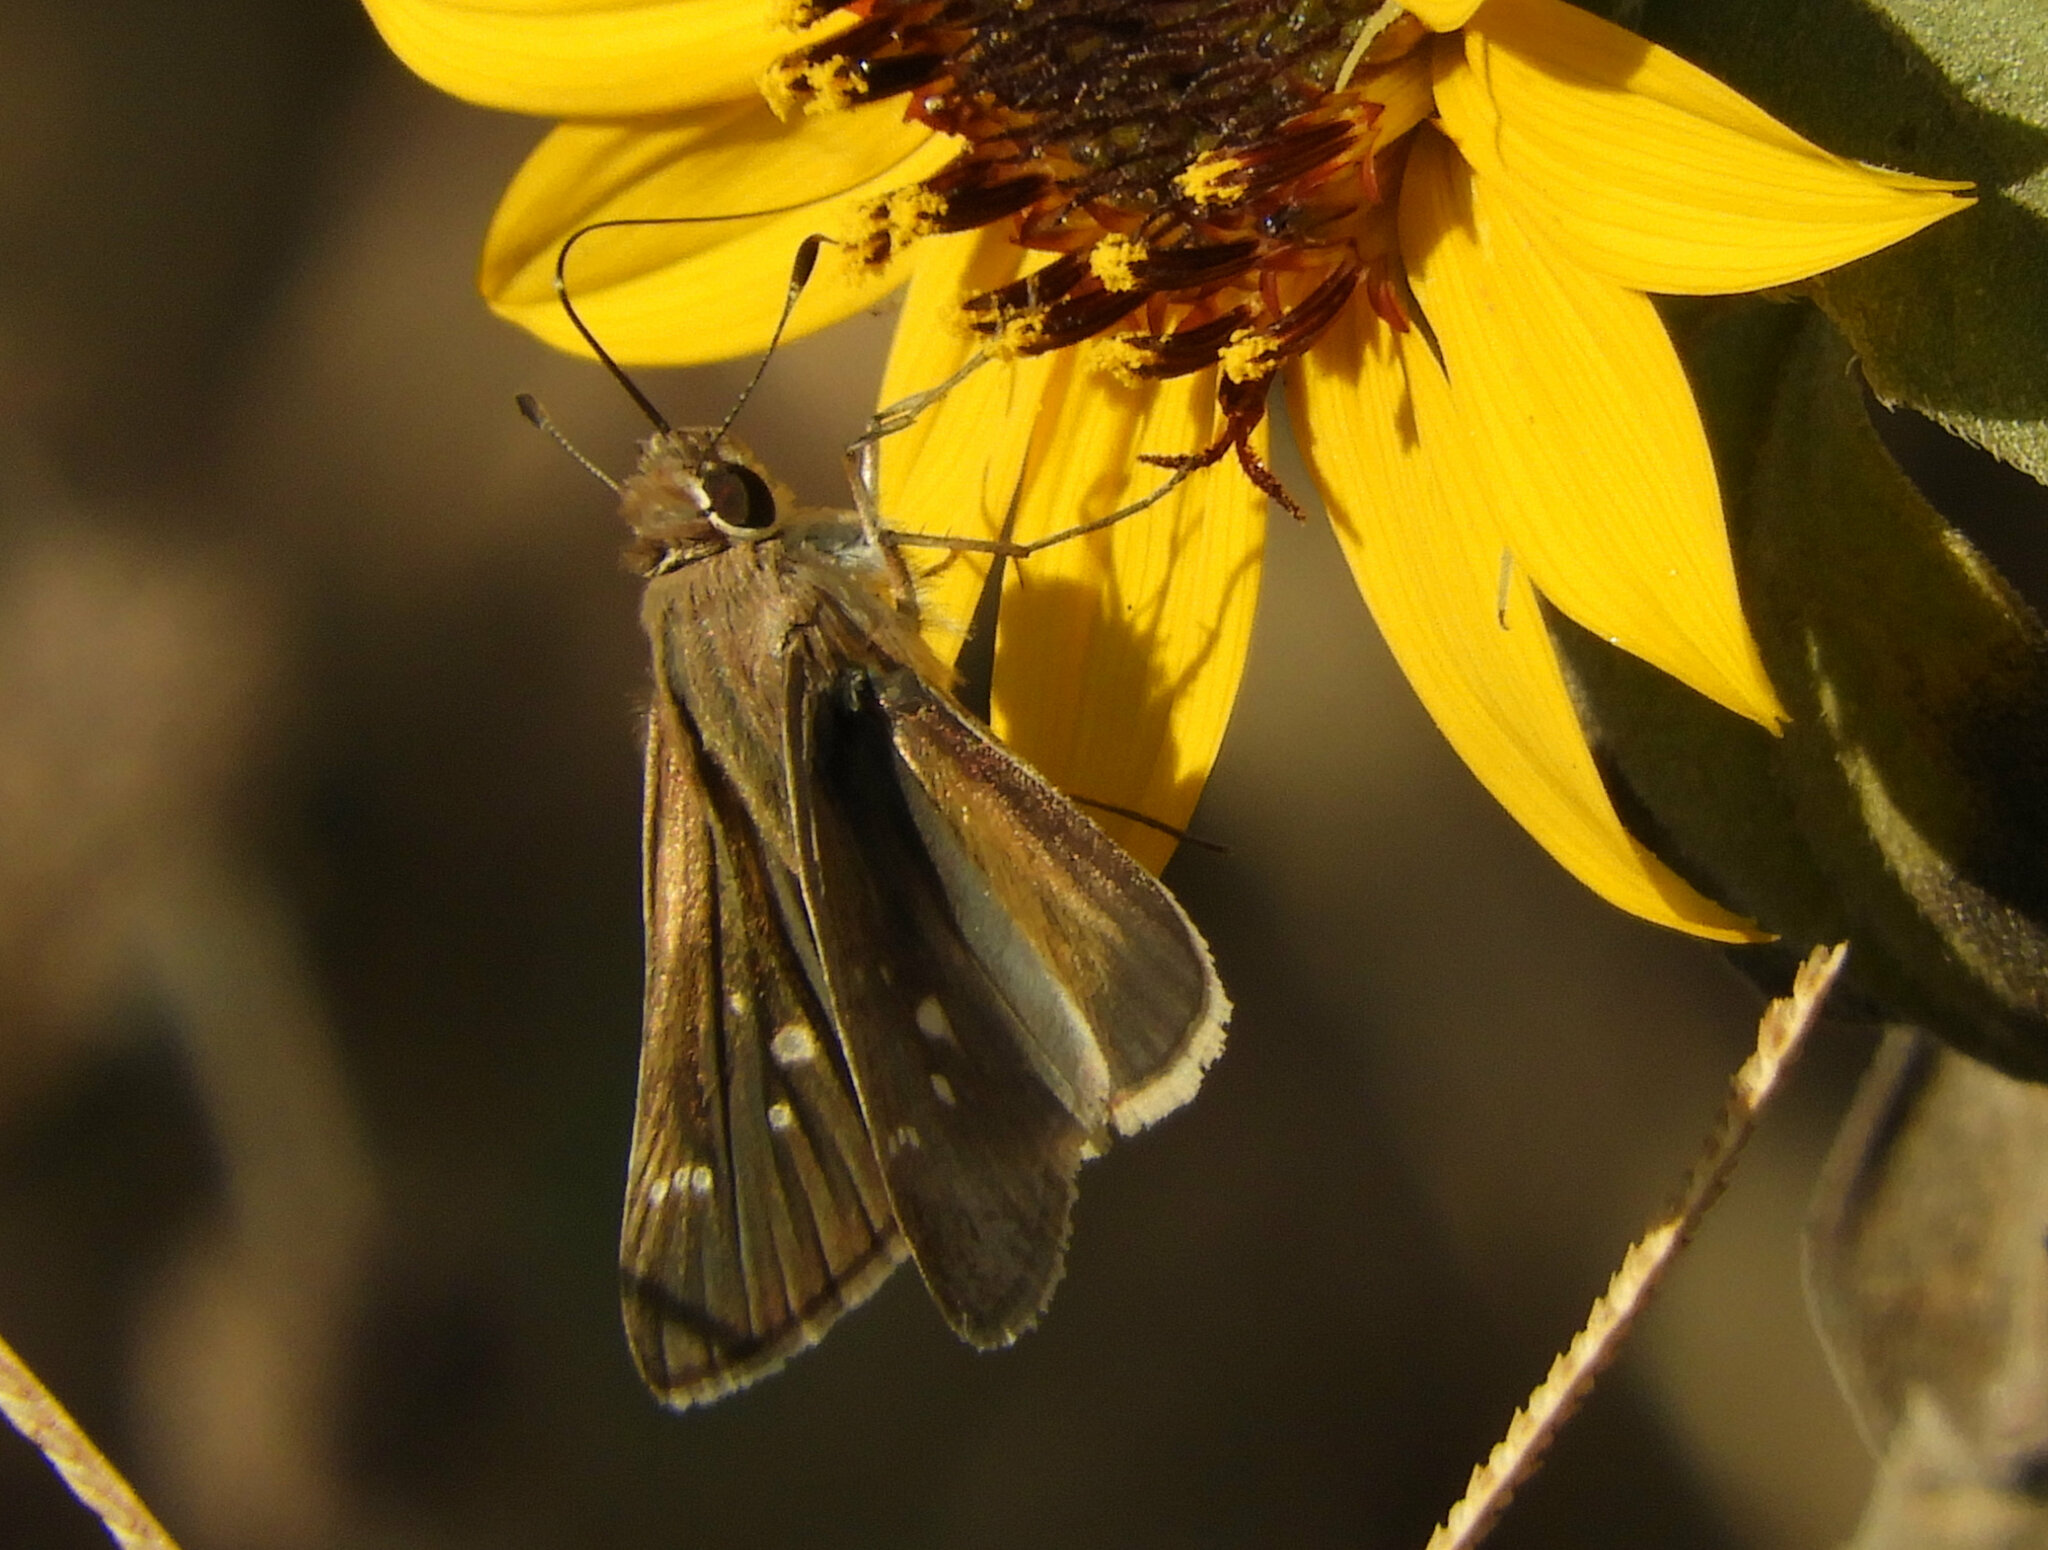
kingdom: Animalia
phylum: Arthropoda
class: Insecta
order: Lepidoptera
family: Hesperiidae
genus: Lerodea
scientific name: Lerodea eufala
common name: Eufala skipper
